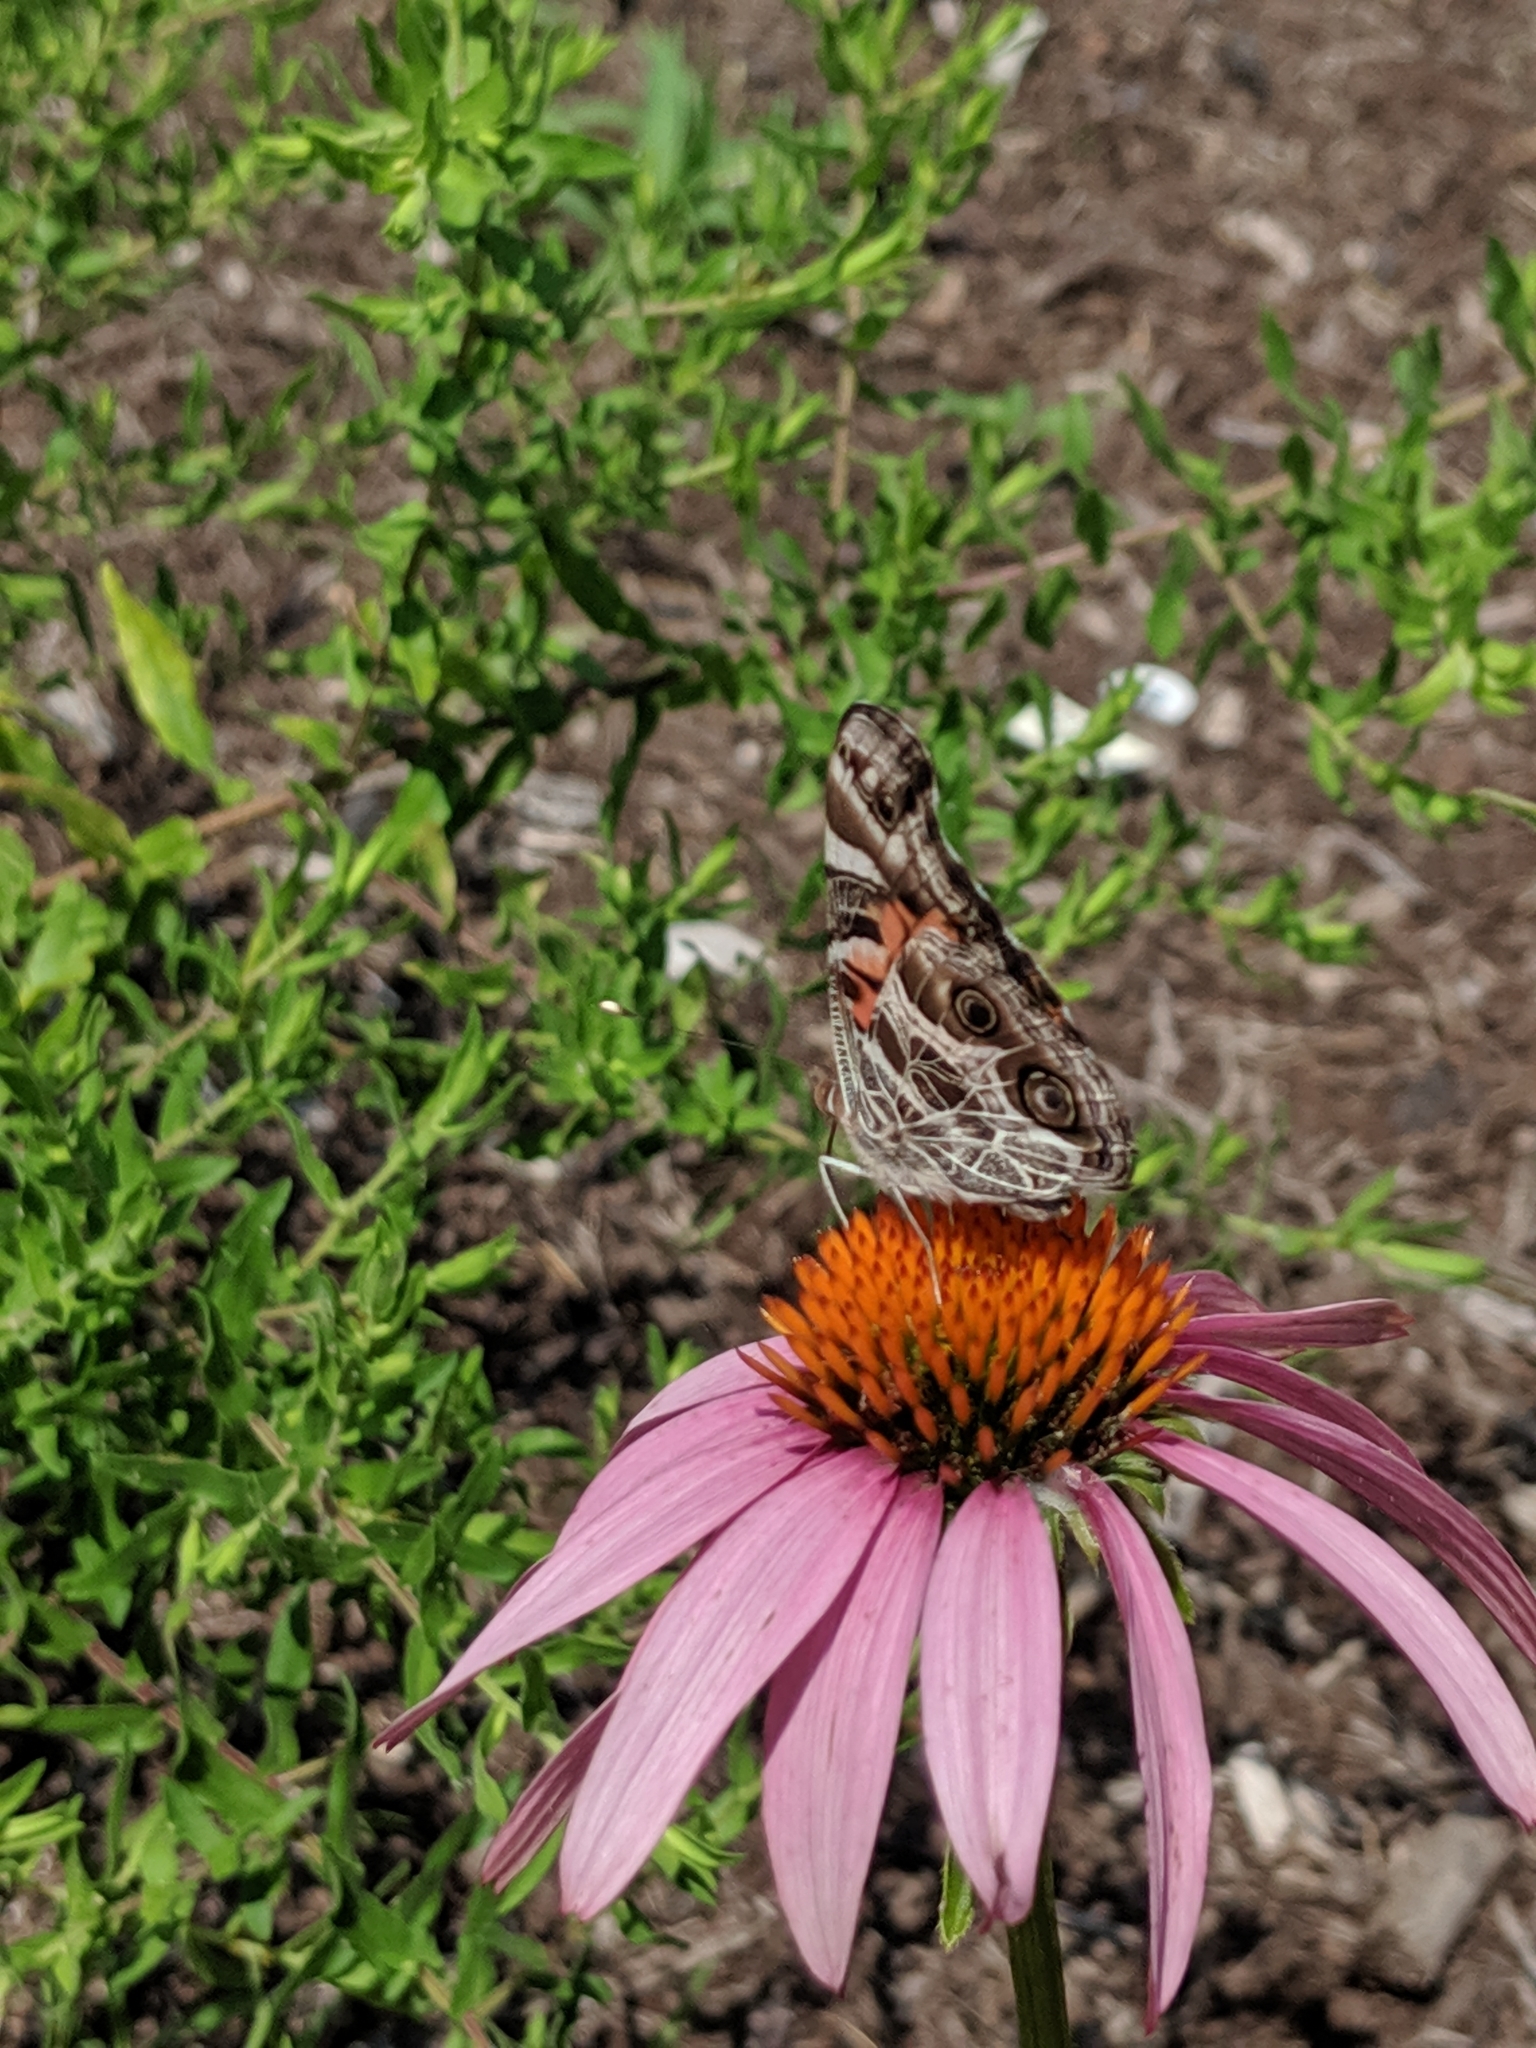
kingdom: Animalia
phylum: Arthropoda
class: Insecta
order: Lepidoptera
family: Nymphalidae
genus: Vanessa
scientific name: Vanessa virginiensis
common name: American lady
